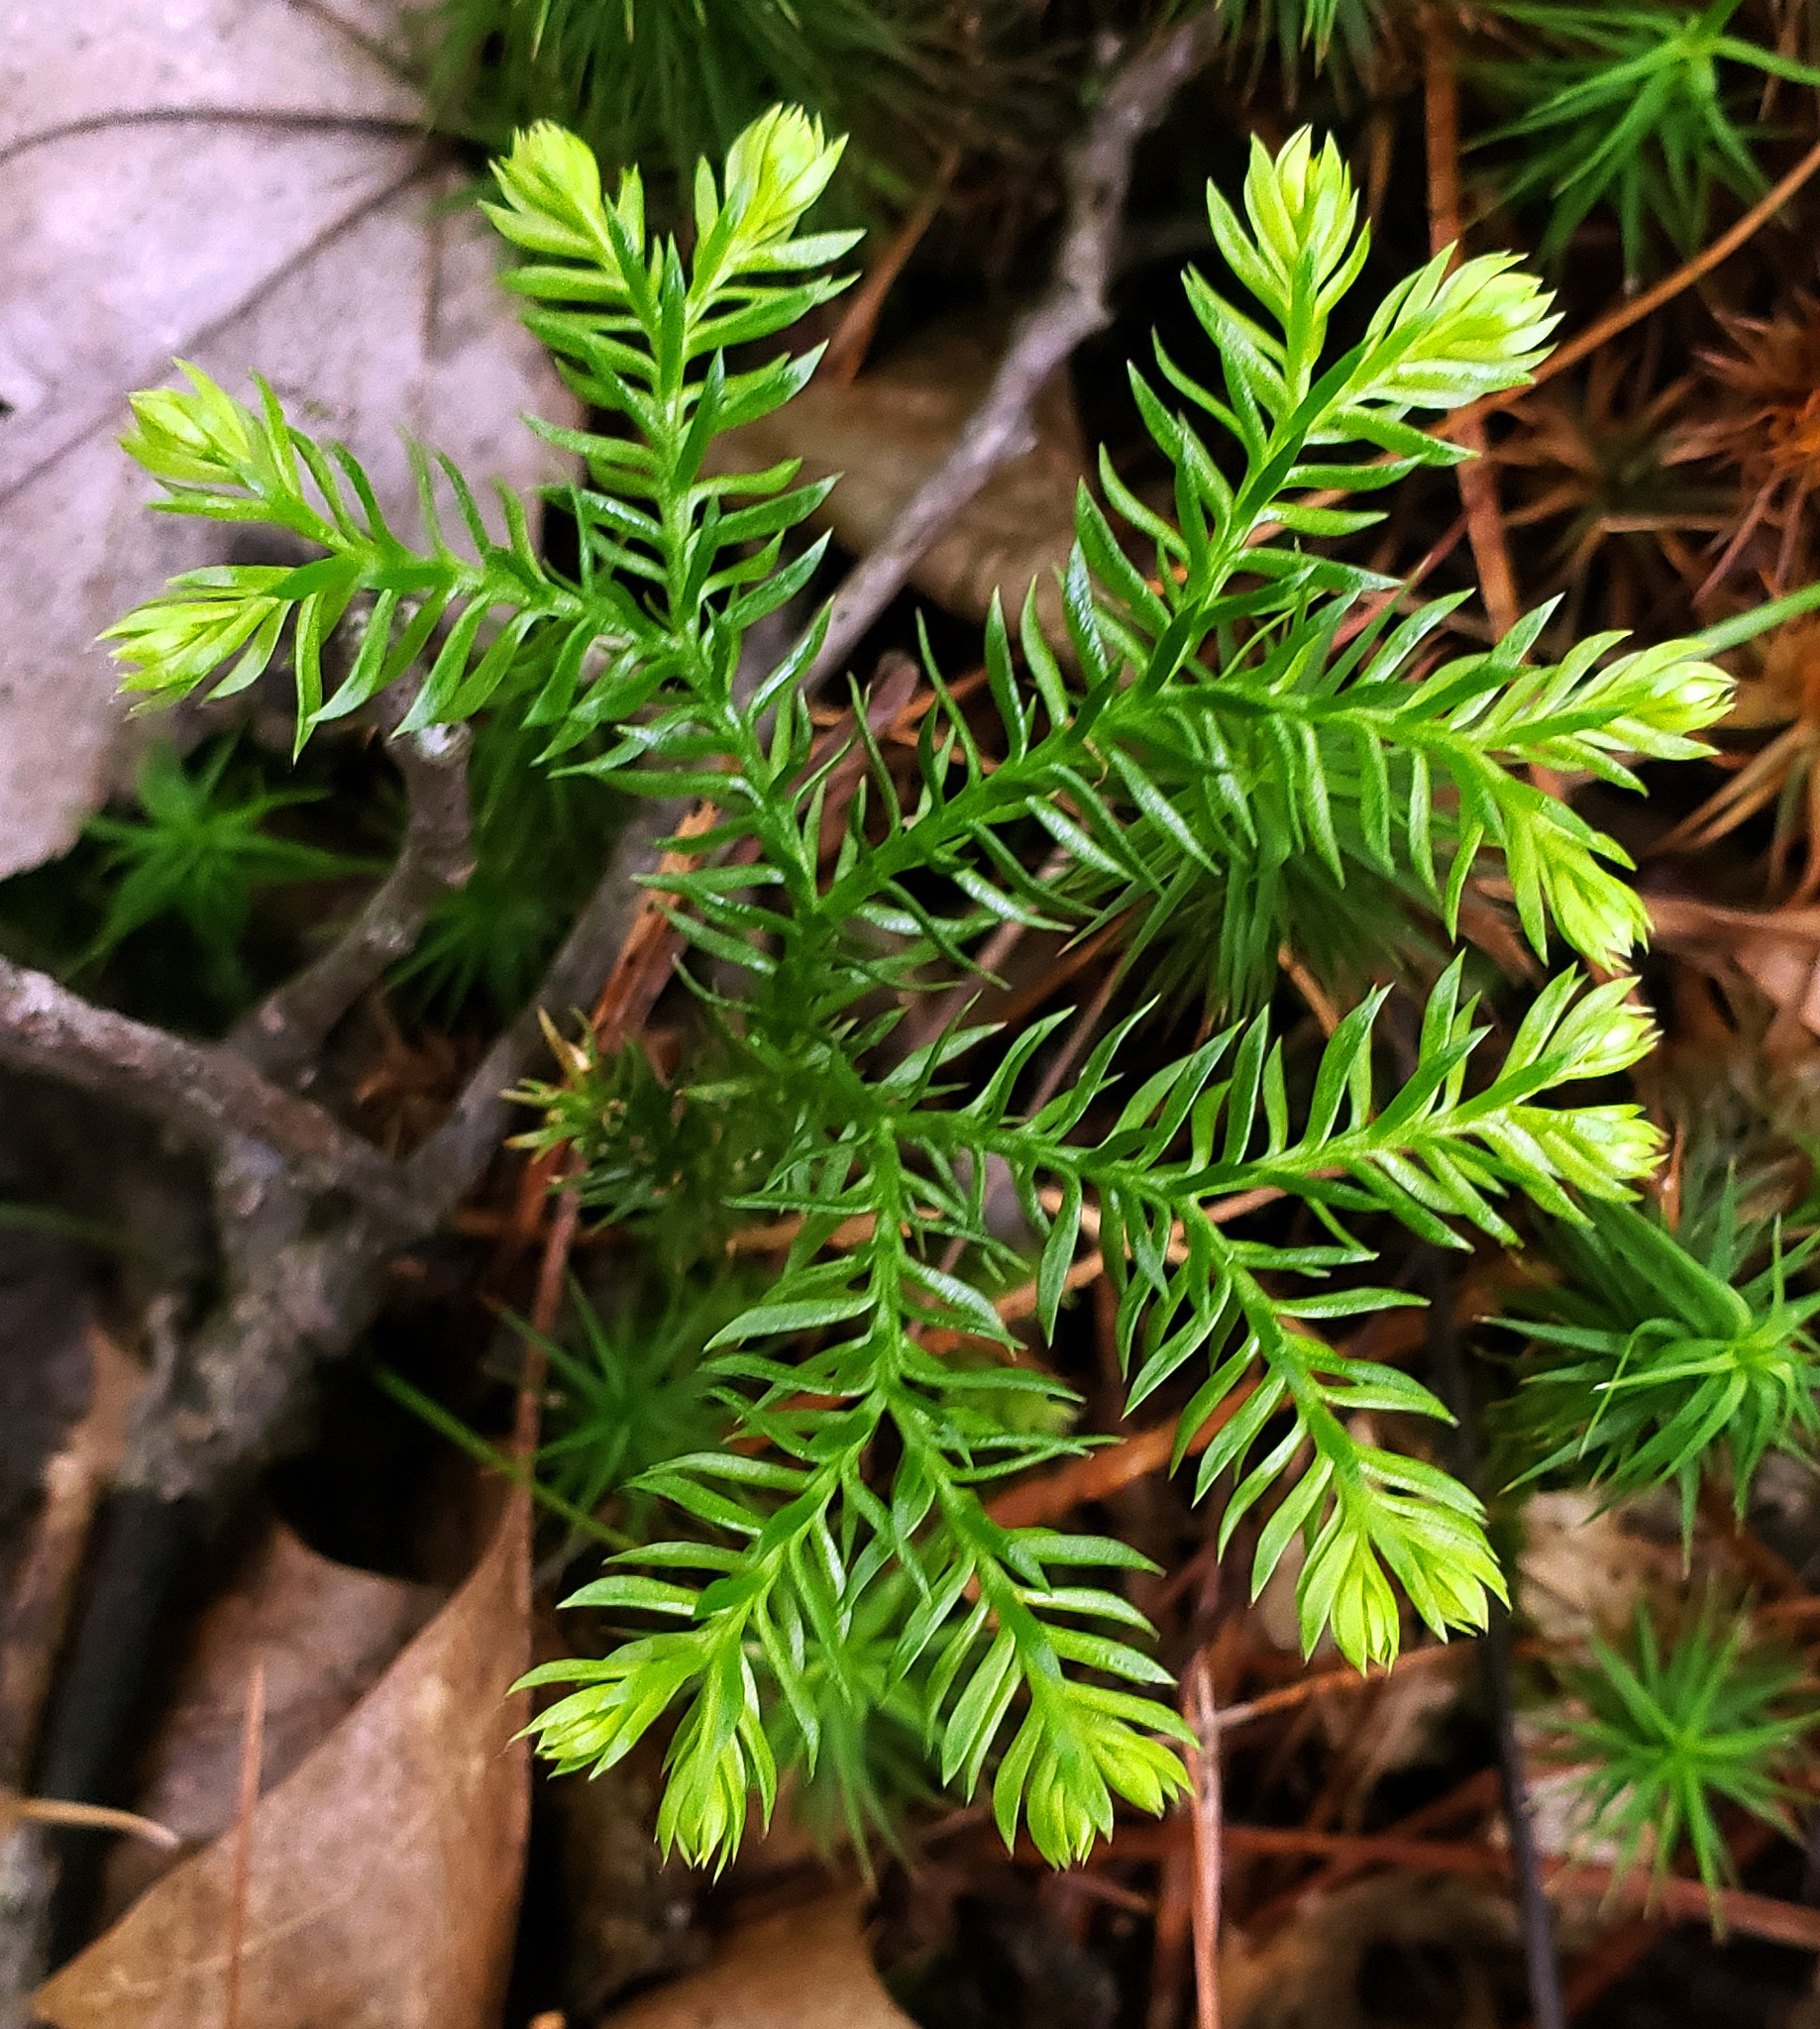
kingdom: Plantae
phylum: Tracheophyta
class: Lycopodiopsida
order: Lycopodiales
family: Lycopodiaceae
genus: Dendrolycopodium
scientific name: Dendrolycopodium dendroideum
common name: Northern tree-clubmoss
